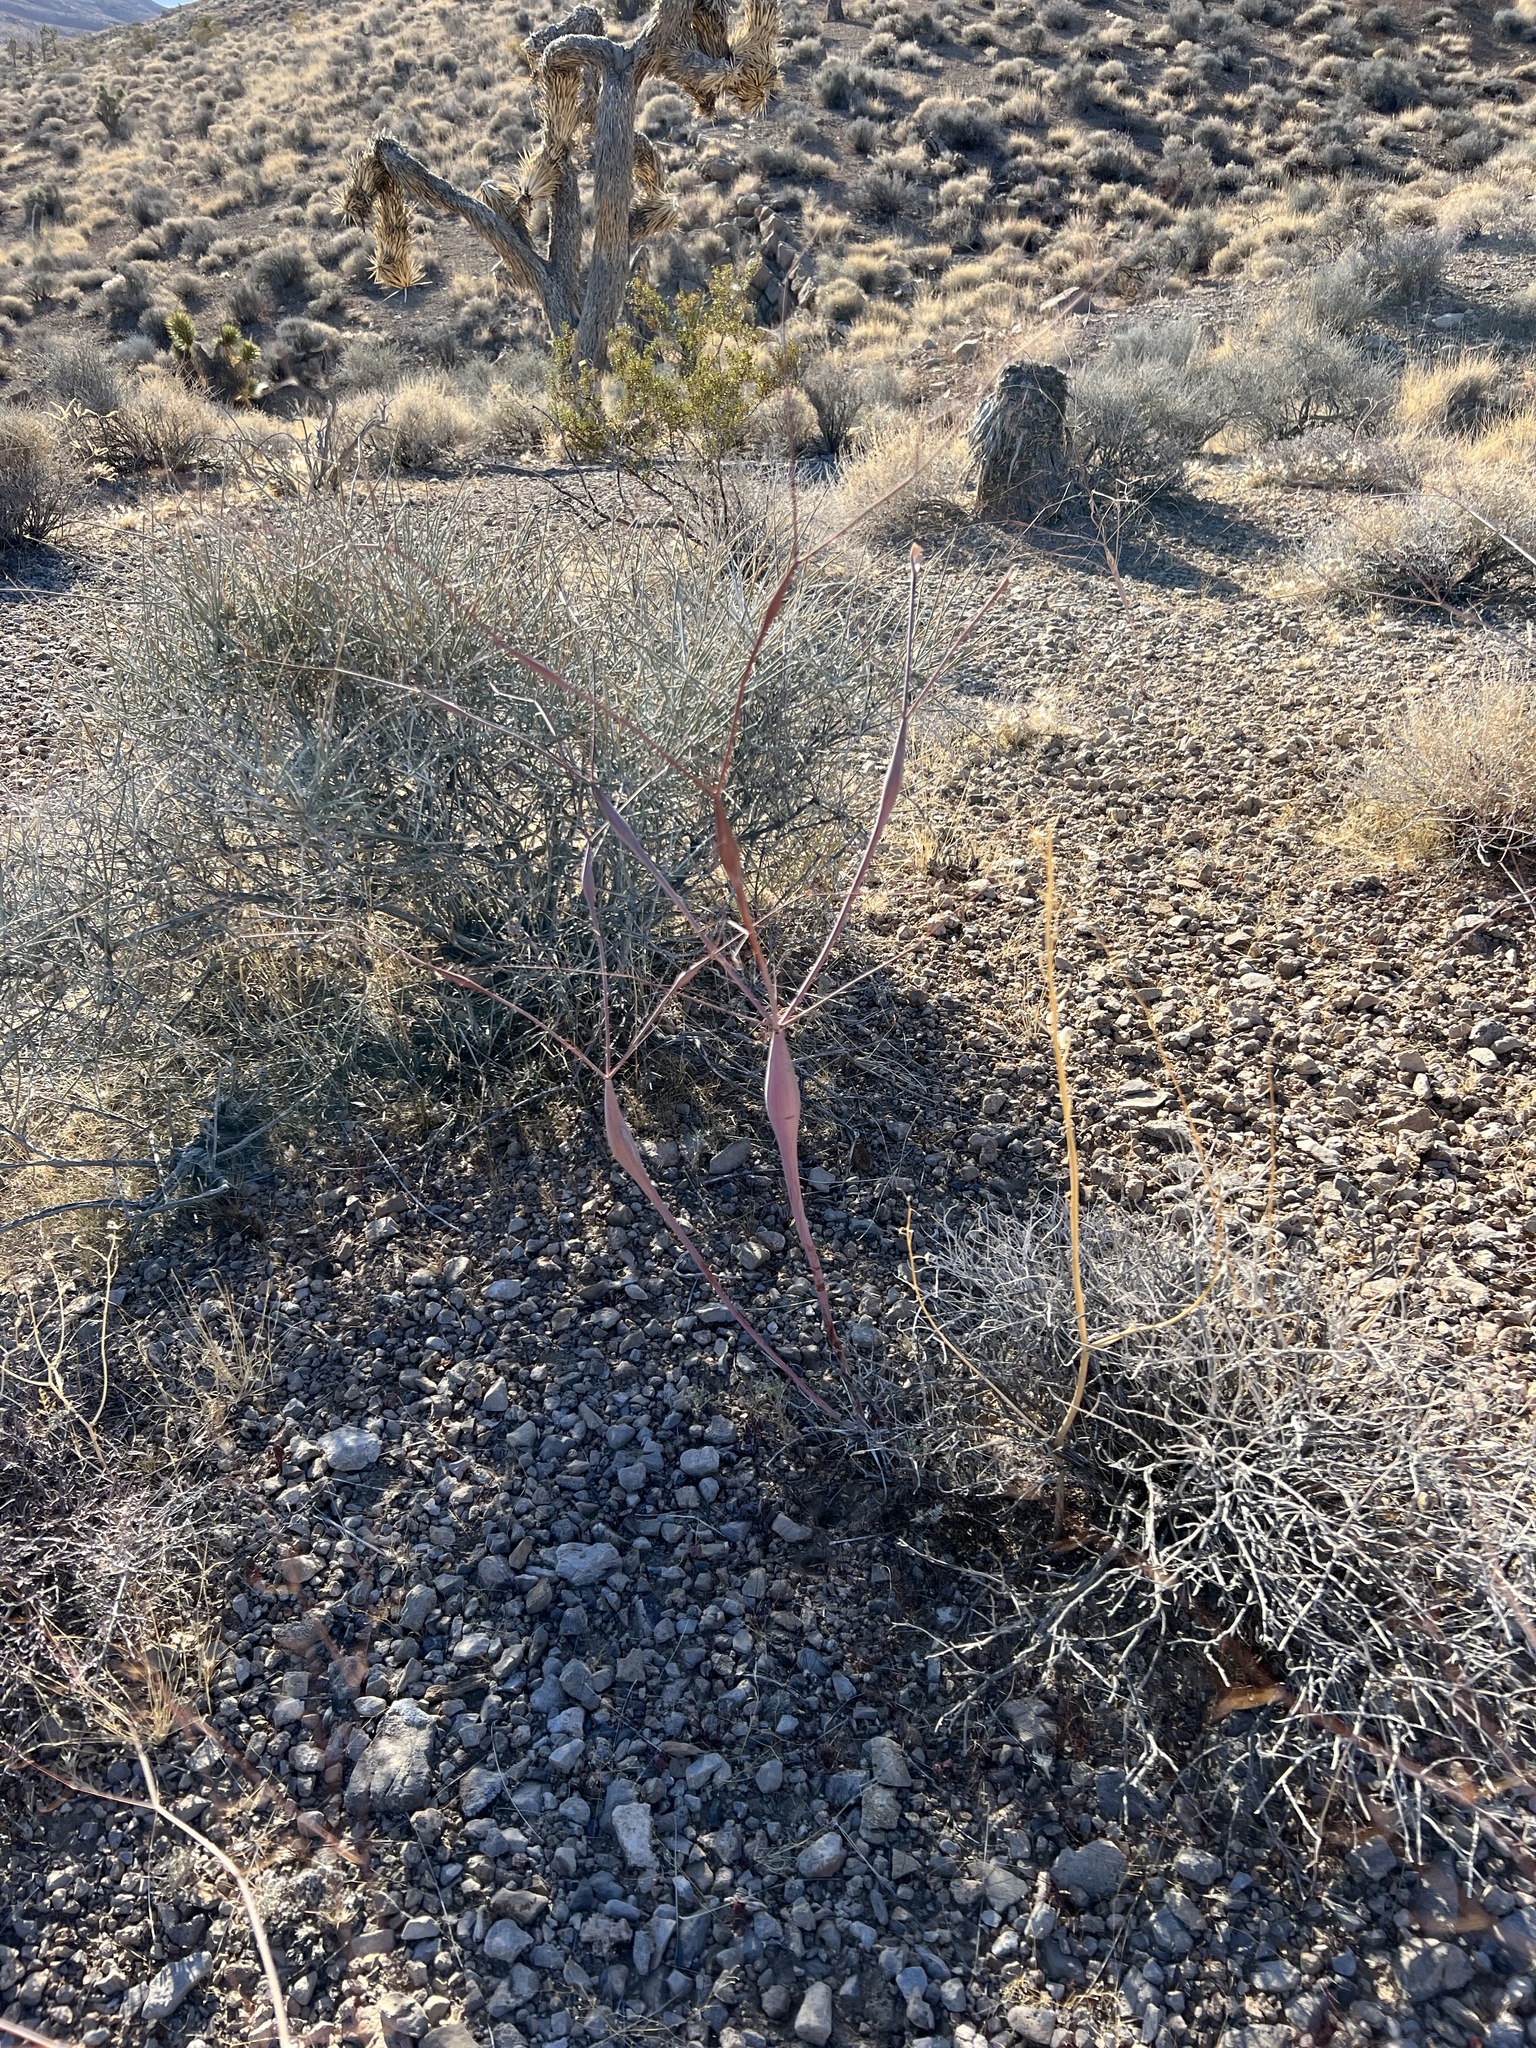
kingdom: Plantae
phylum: Tracheophyta
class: Magnoliopsida
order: Caryophyllales
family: Polygonaceae
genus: Eriogonum
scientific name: Eriogonum inflatum
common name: Desert trumpet
